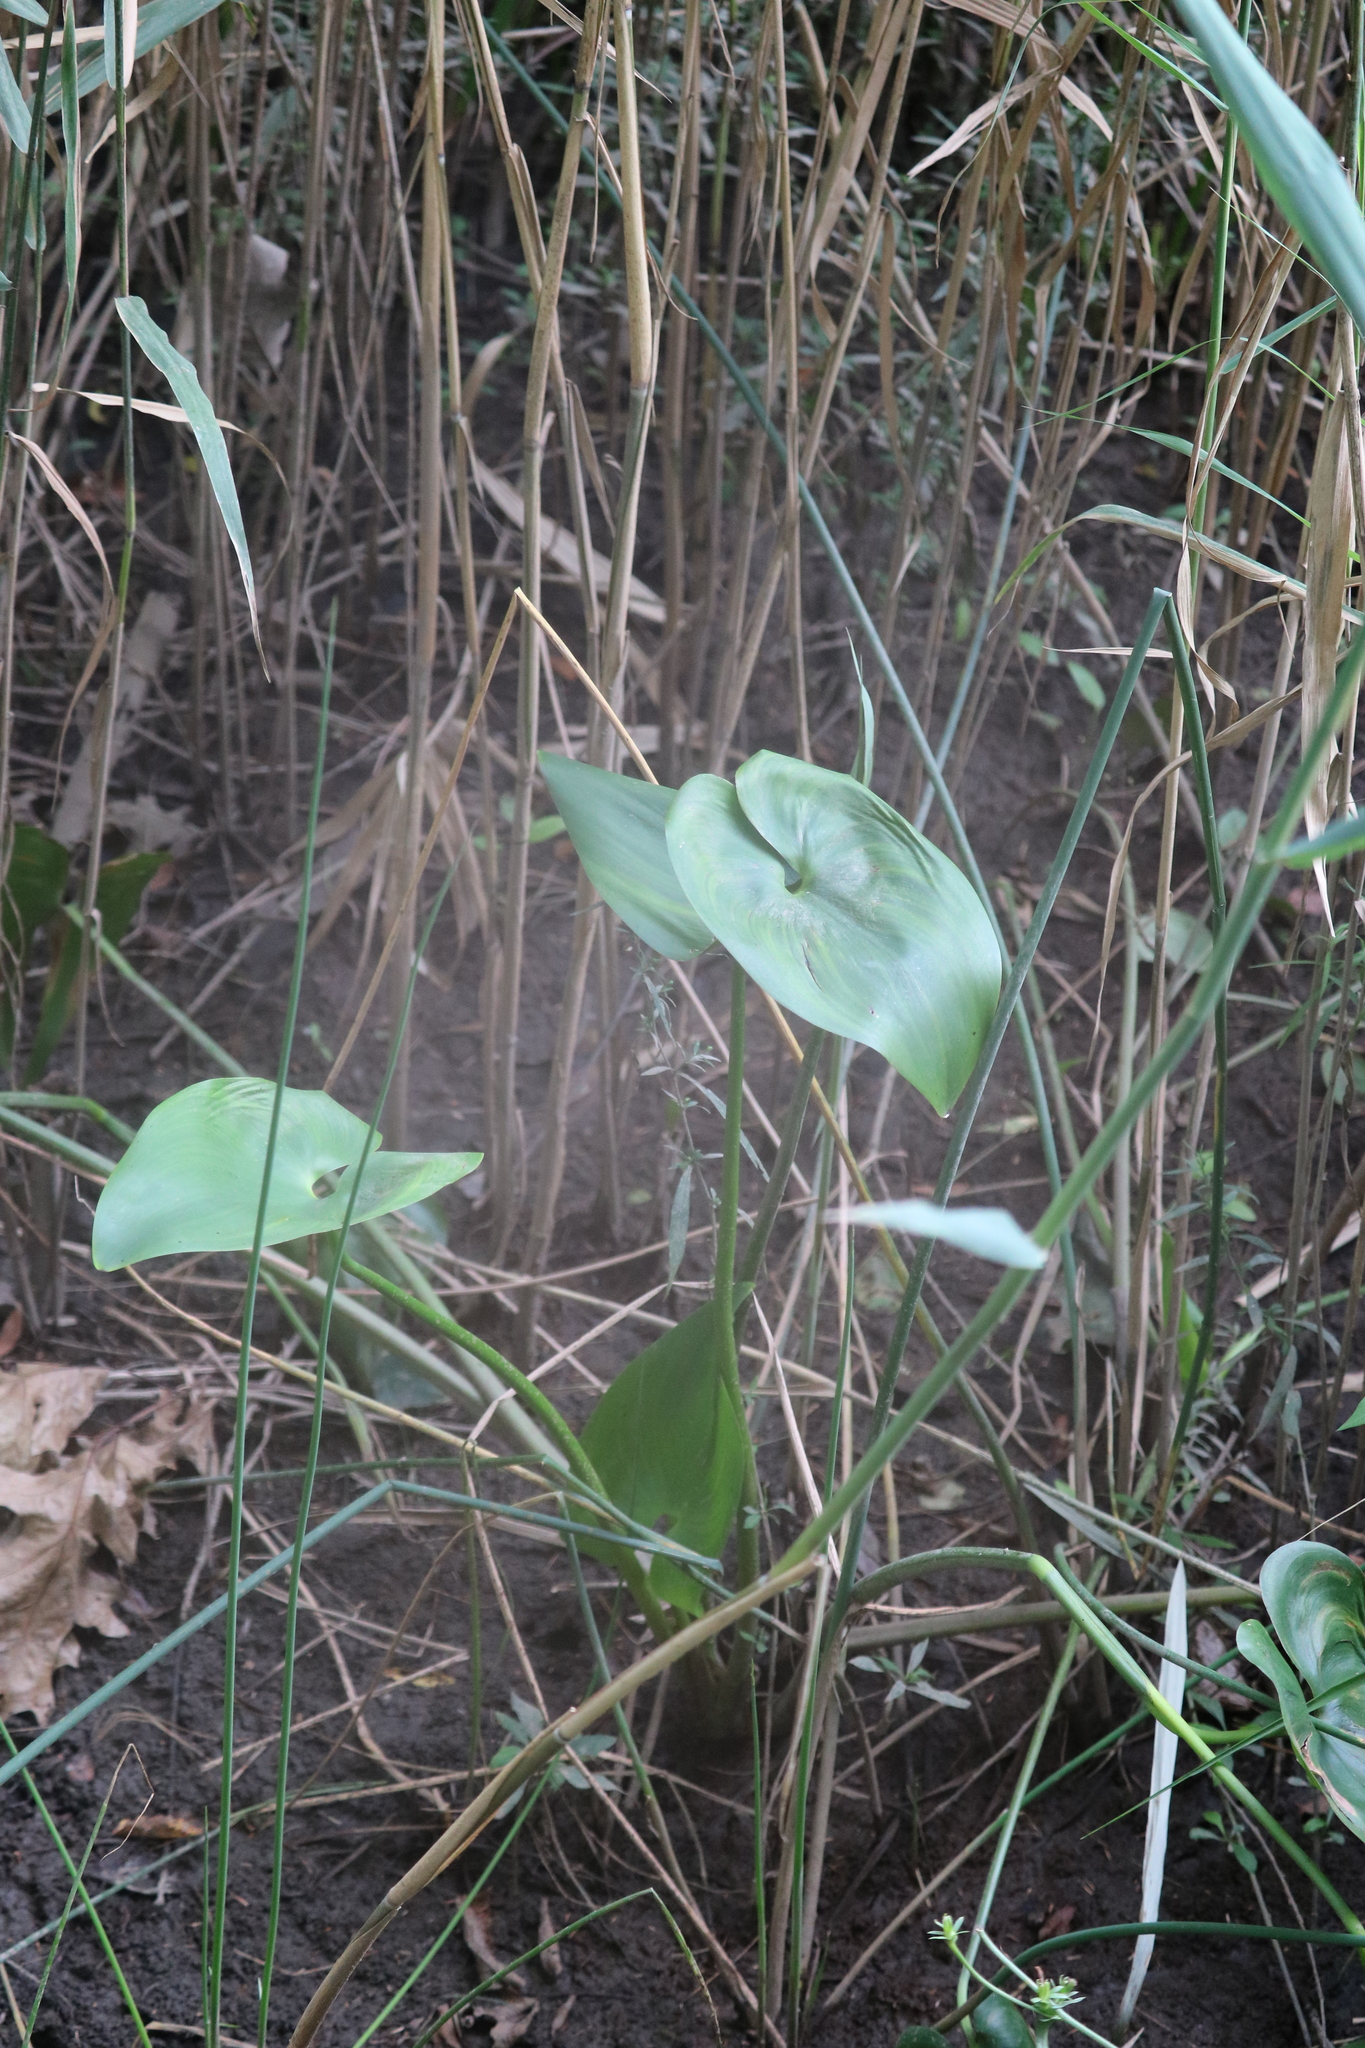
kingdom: Plantae
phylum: Tracheophyta
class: Liliopsida
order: Commelinales
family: Pontederiaceae
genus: Pontederia
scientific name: Pontederia cordata
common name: Pickerelweed
